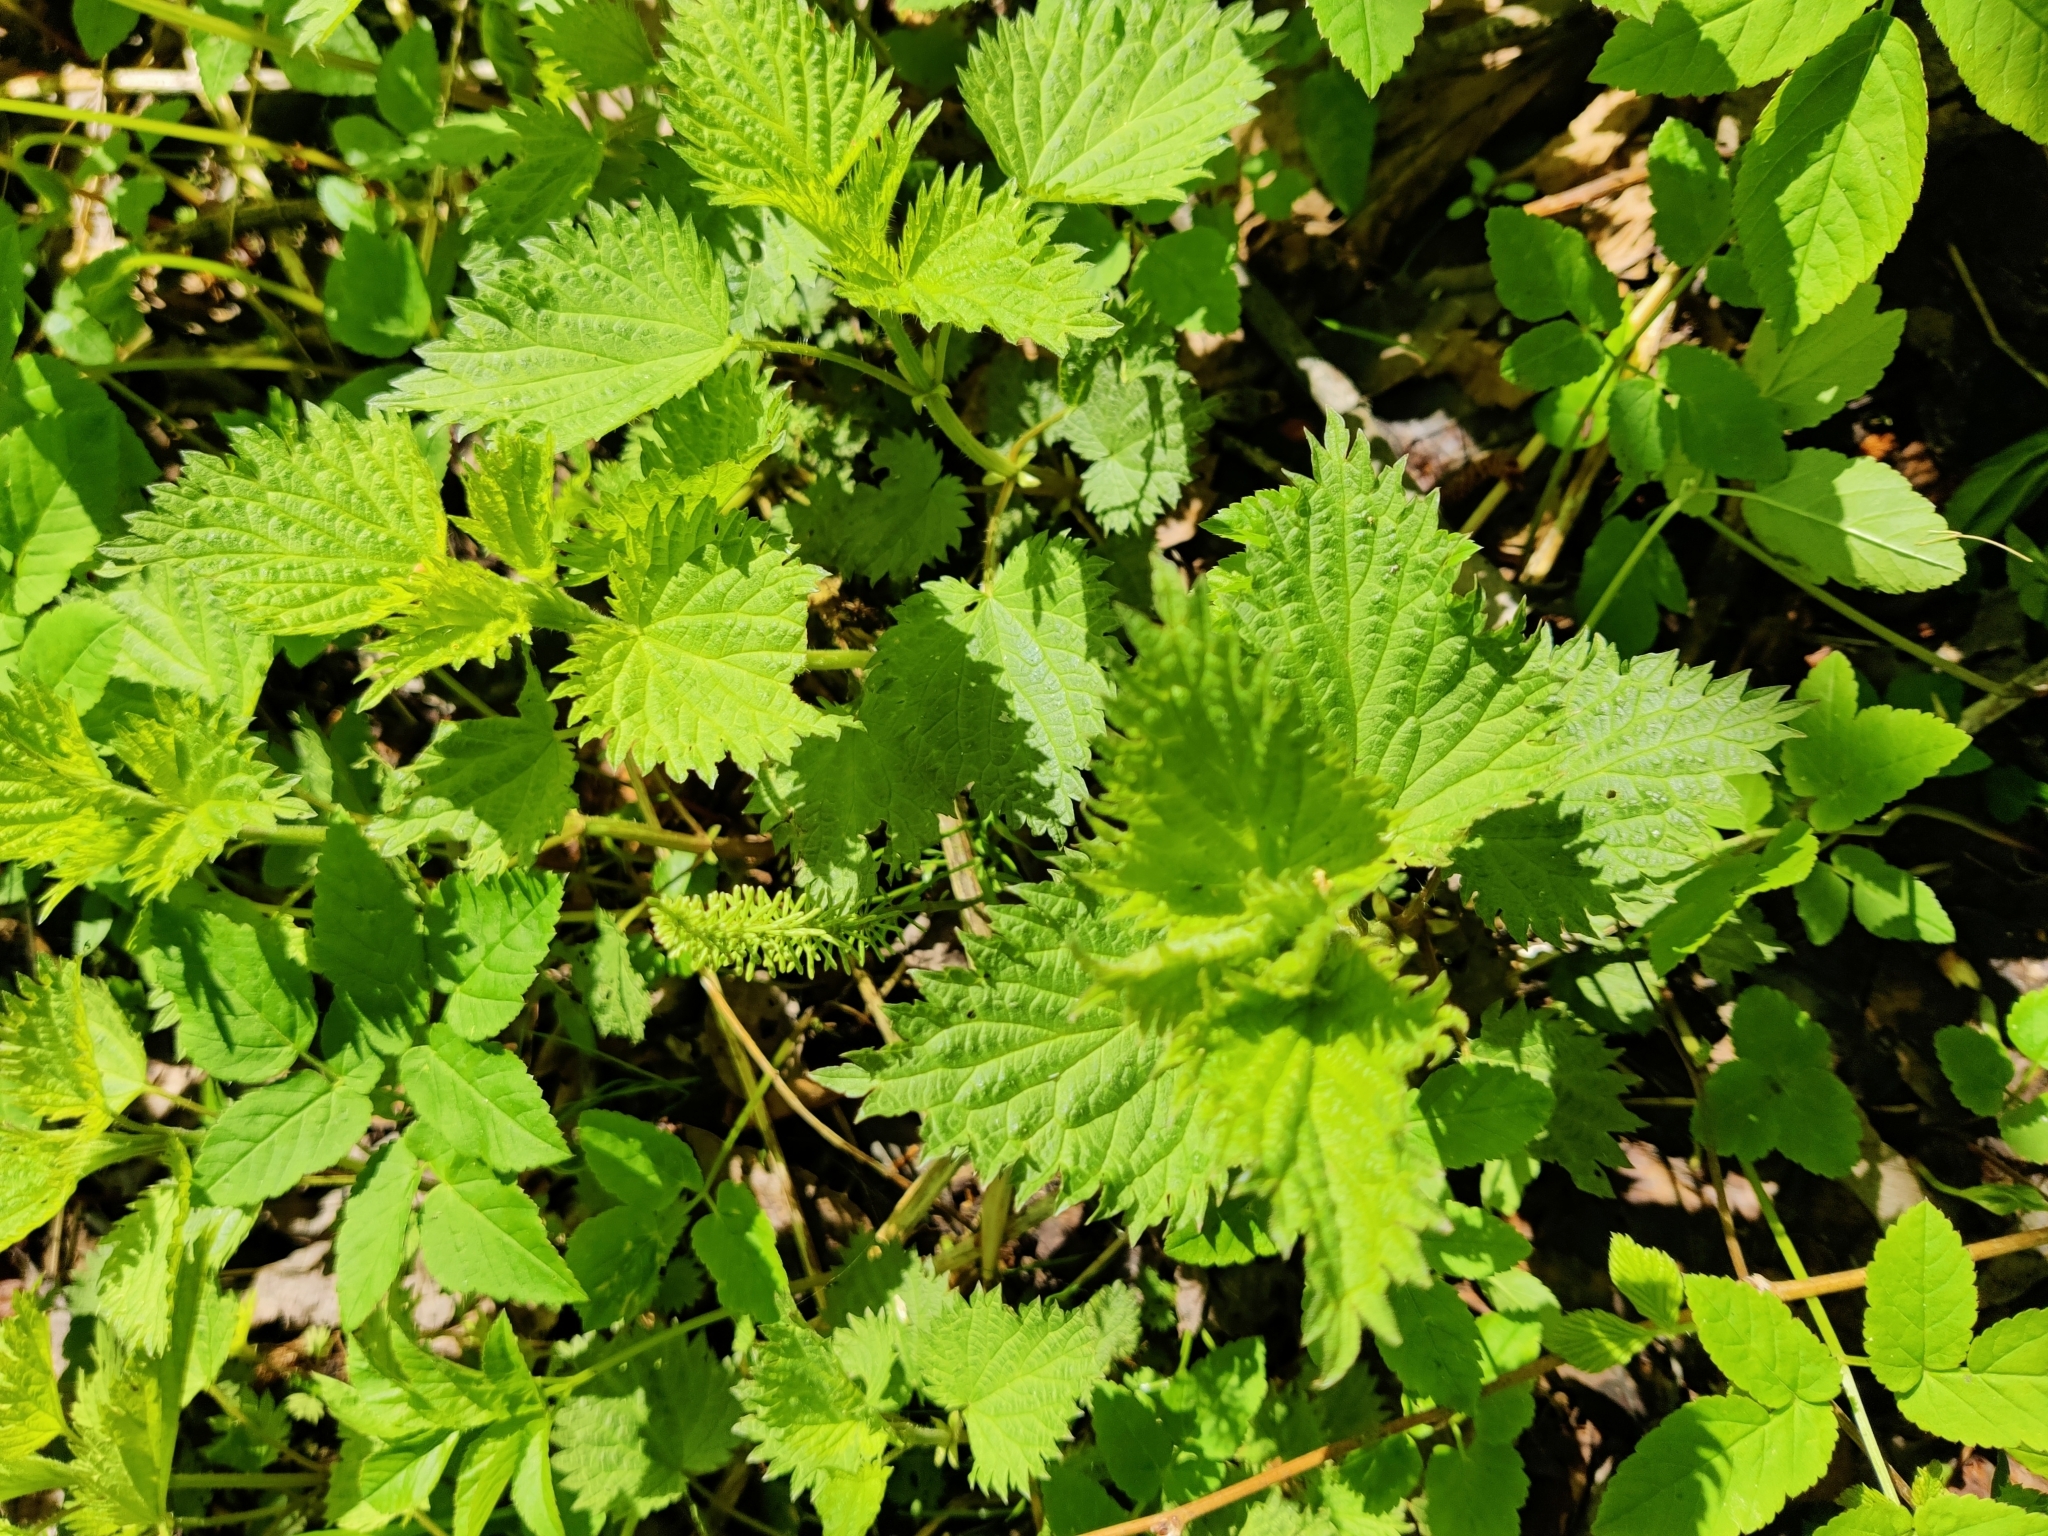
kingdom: Plantae
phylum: Tracheophyta
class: Magnoliopsida
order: Rosales
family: Urticaceae
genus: Urtica
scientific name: Urtica dioica
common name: Common nettle
